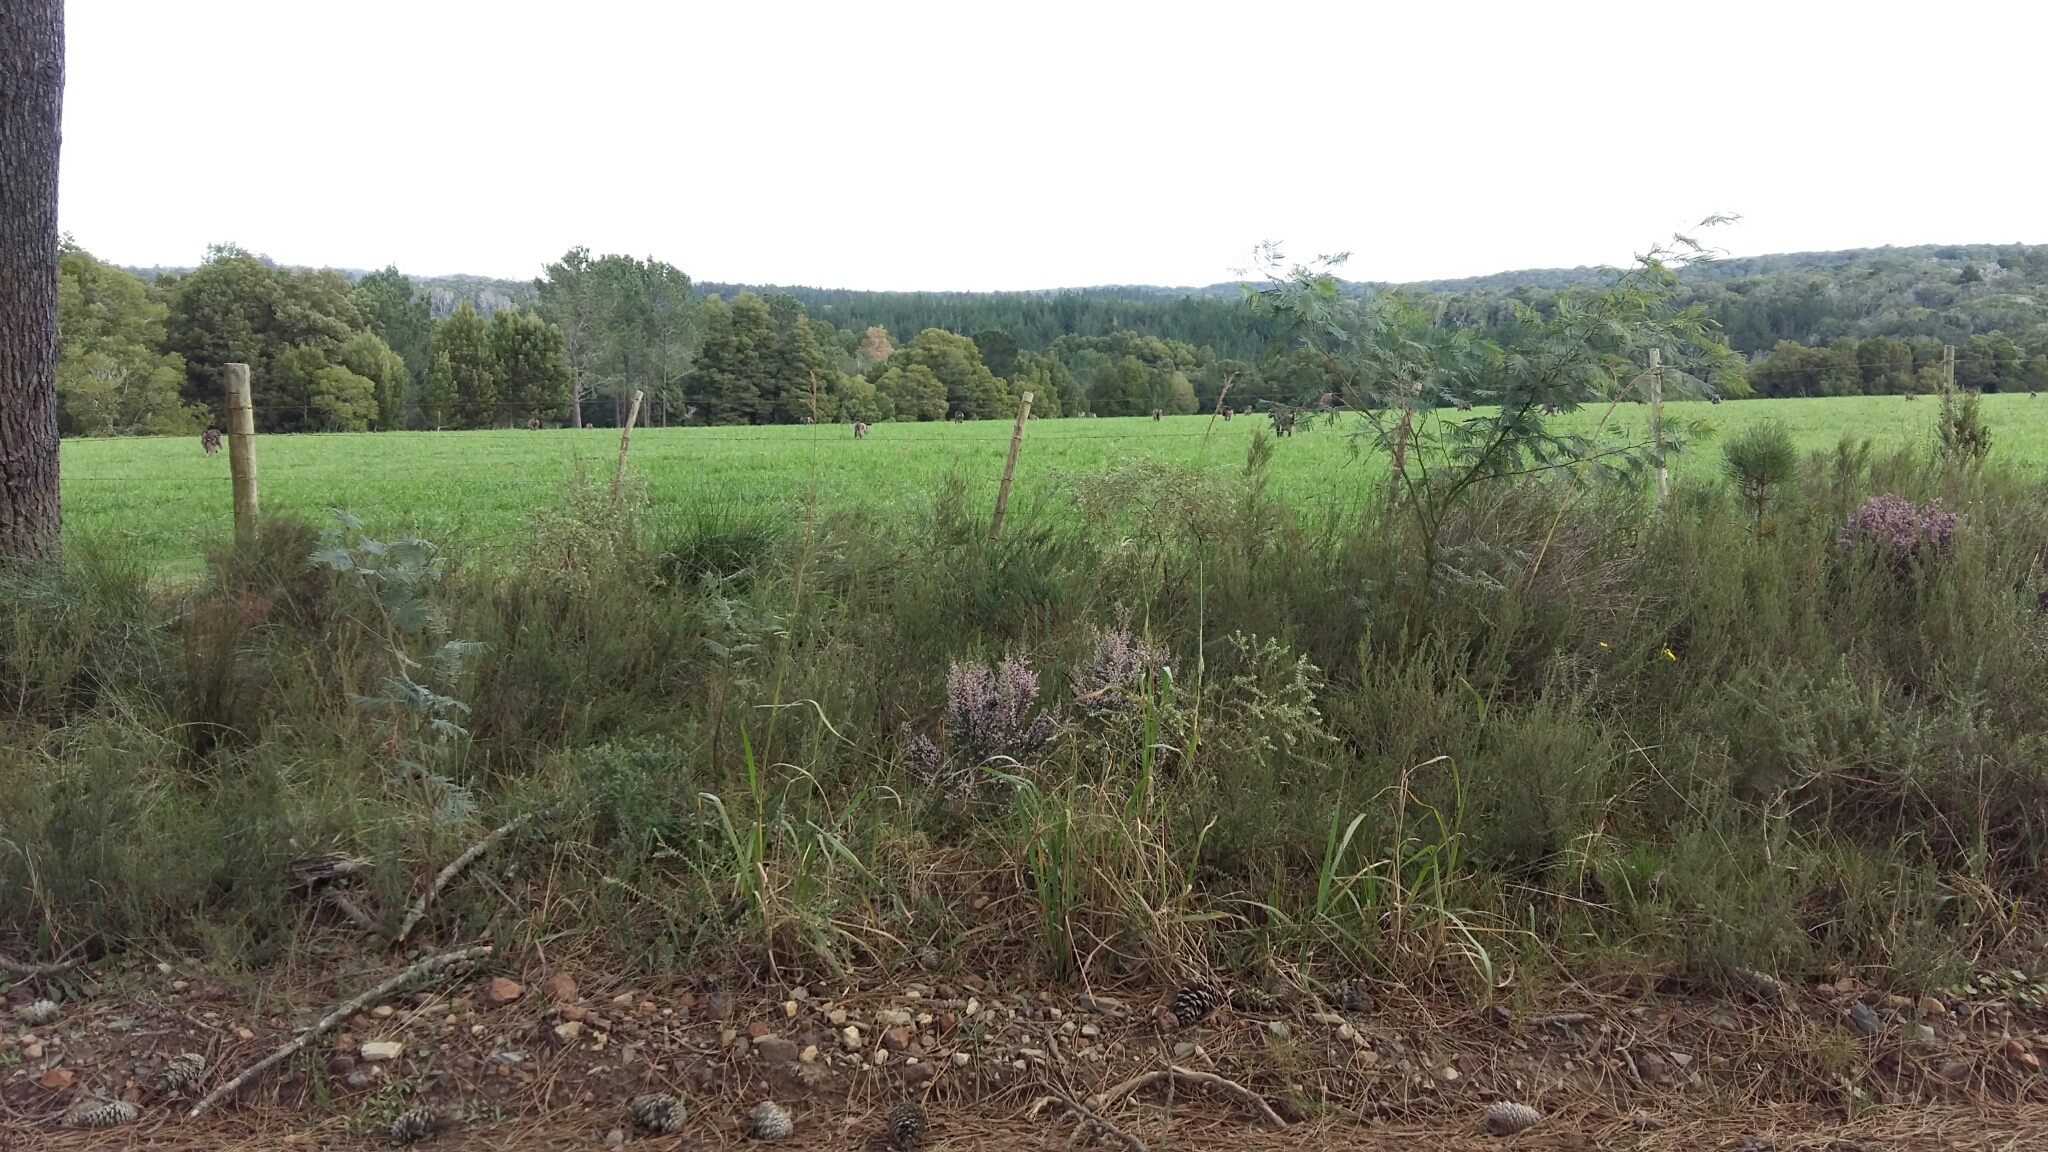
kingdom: Animalia
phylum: Chordata
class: Mammalia
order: Primates
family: Cercopithecidae
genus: Papio
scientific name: Papio ursinus
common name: Chacma baboon
